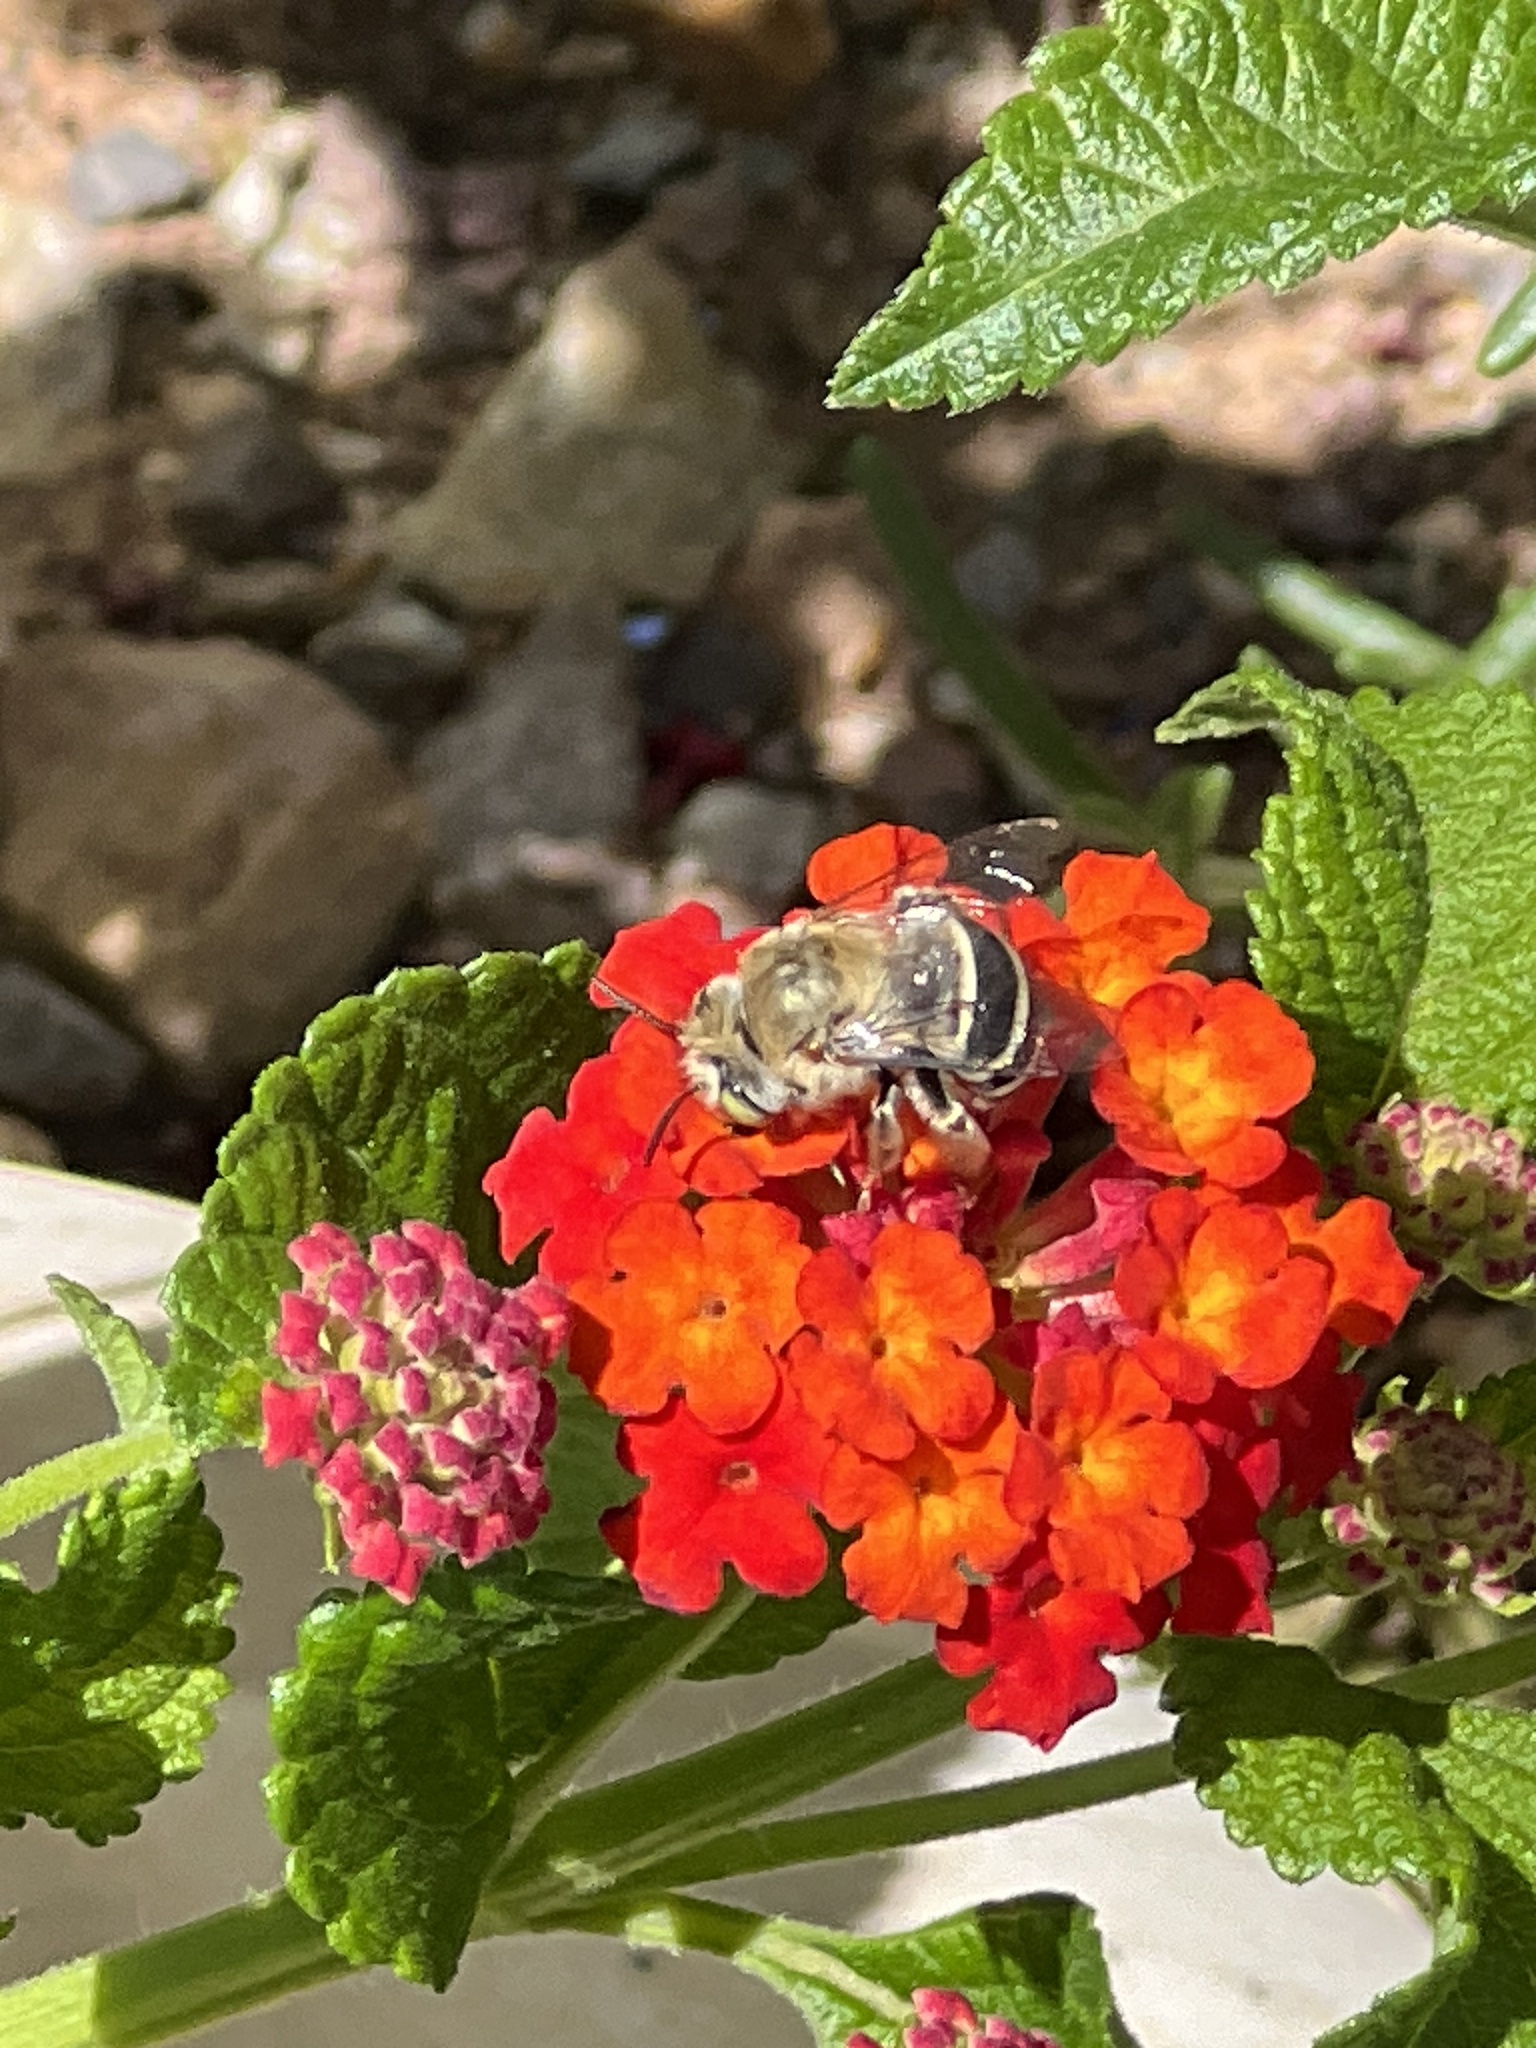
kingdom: Animalia
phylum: Arthropoda
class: Insecta
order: Hymenoptera
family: Apidae
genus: Anthophora
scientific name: Anthophora californica
